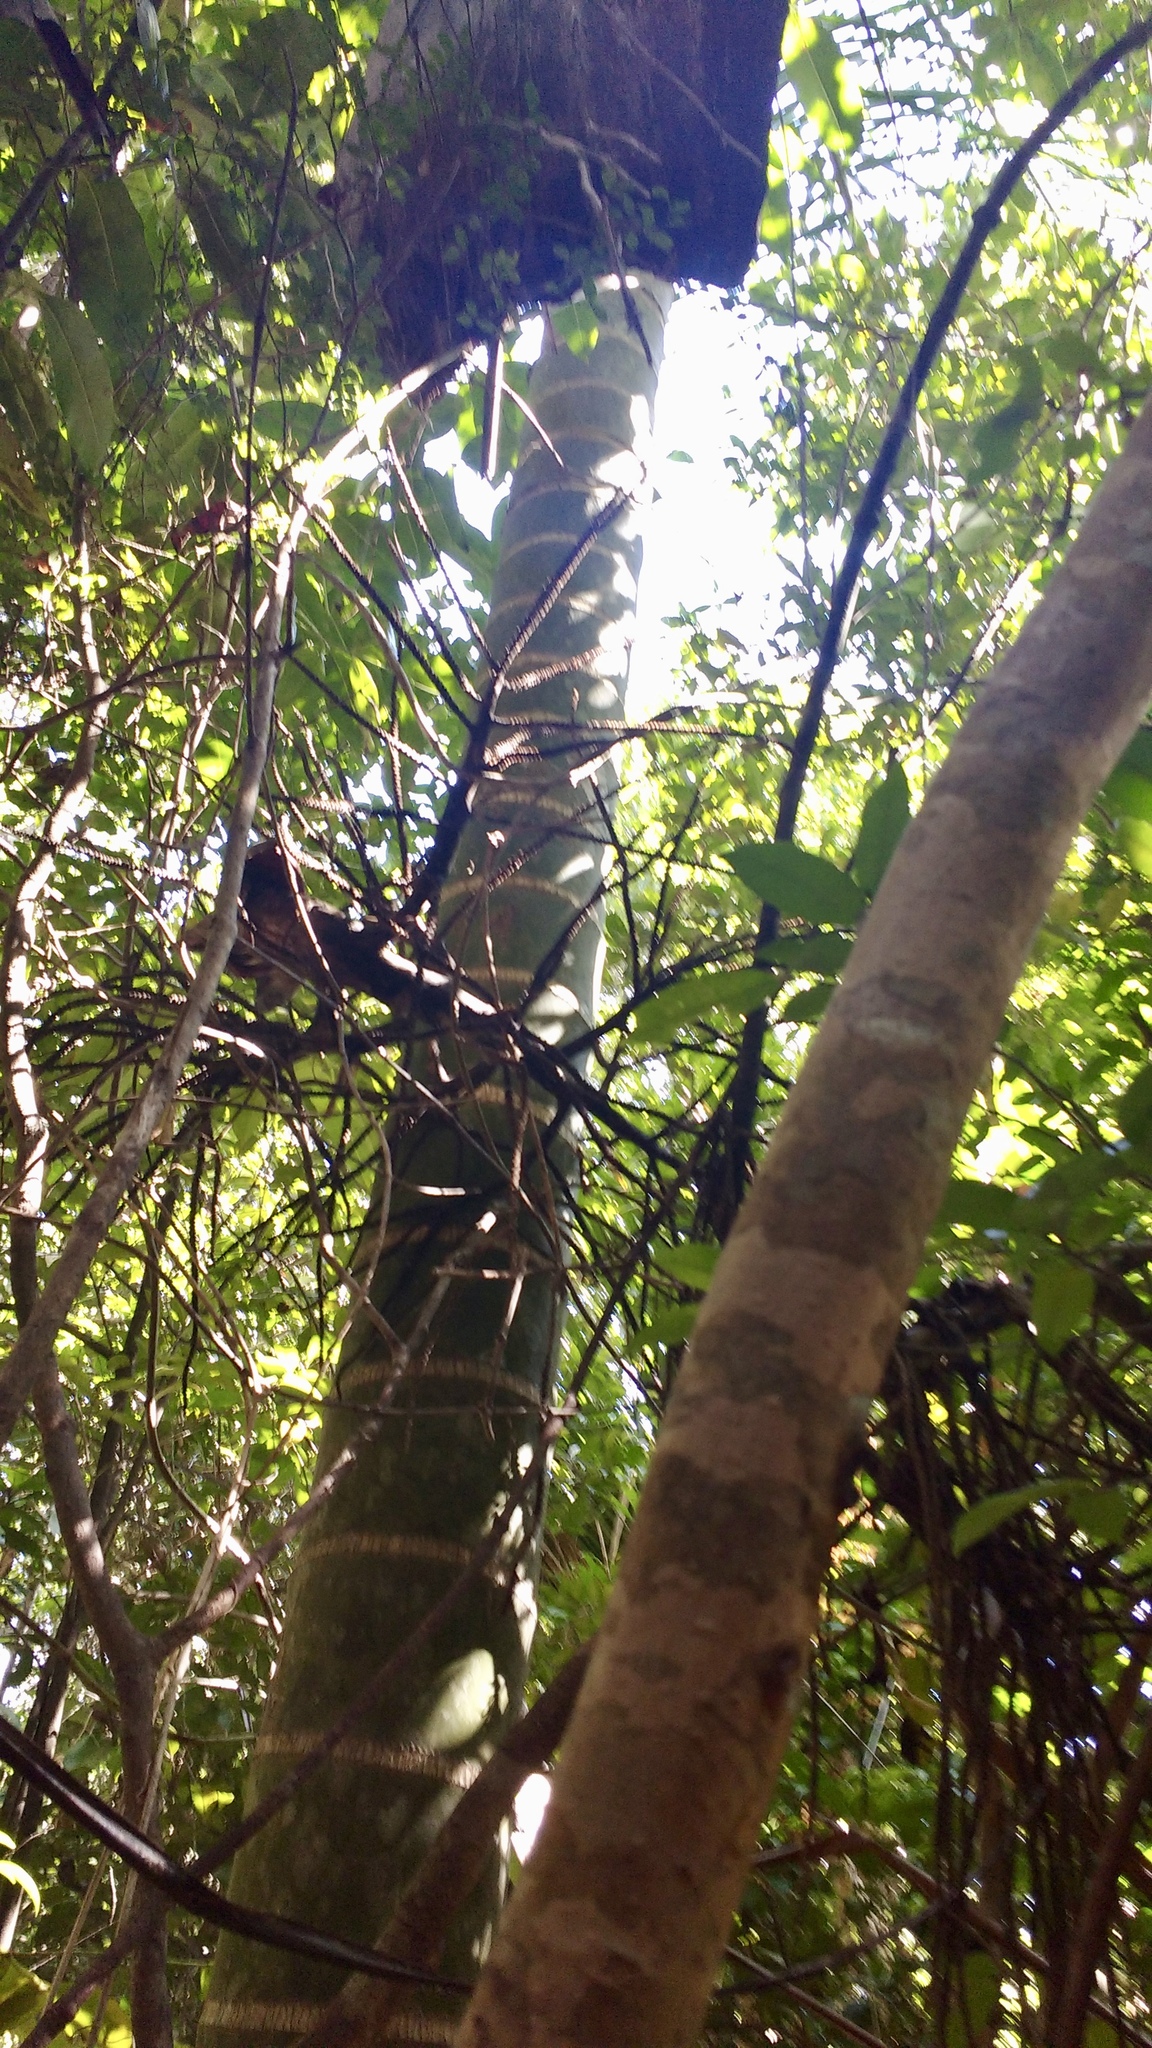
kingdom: Plantae
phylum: Tracheophyta
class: Liliopsida
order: Arecales
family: Arecaceae
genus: Dypsis
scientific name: Dypsis hovomantsina
